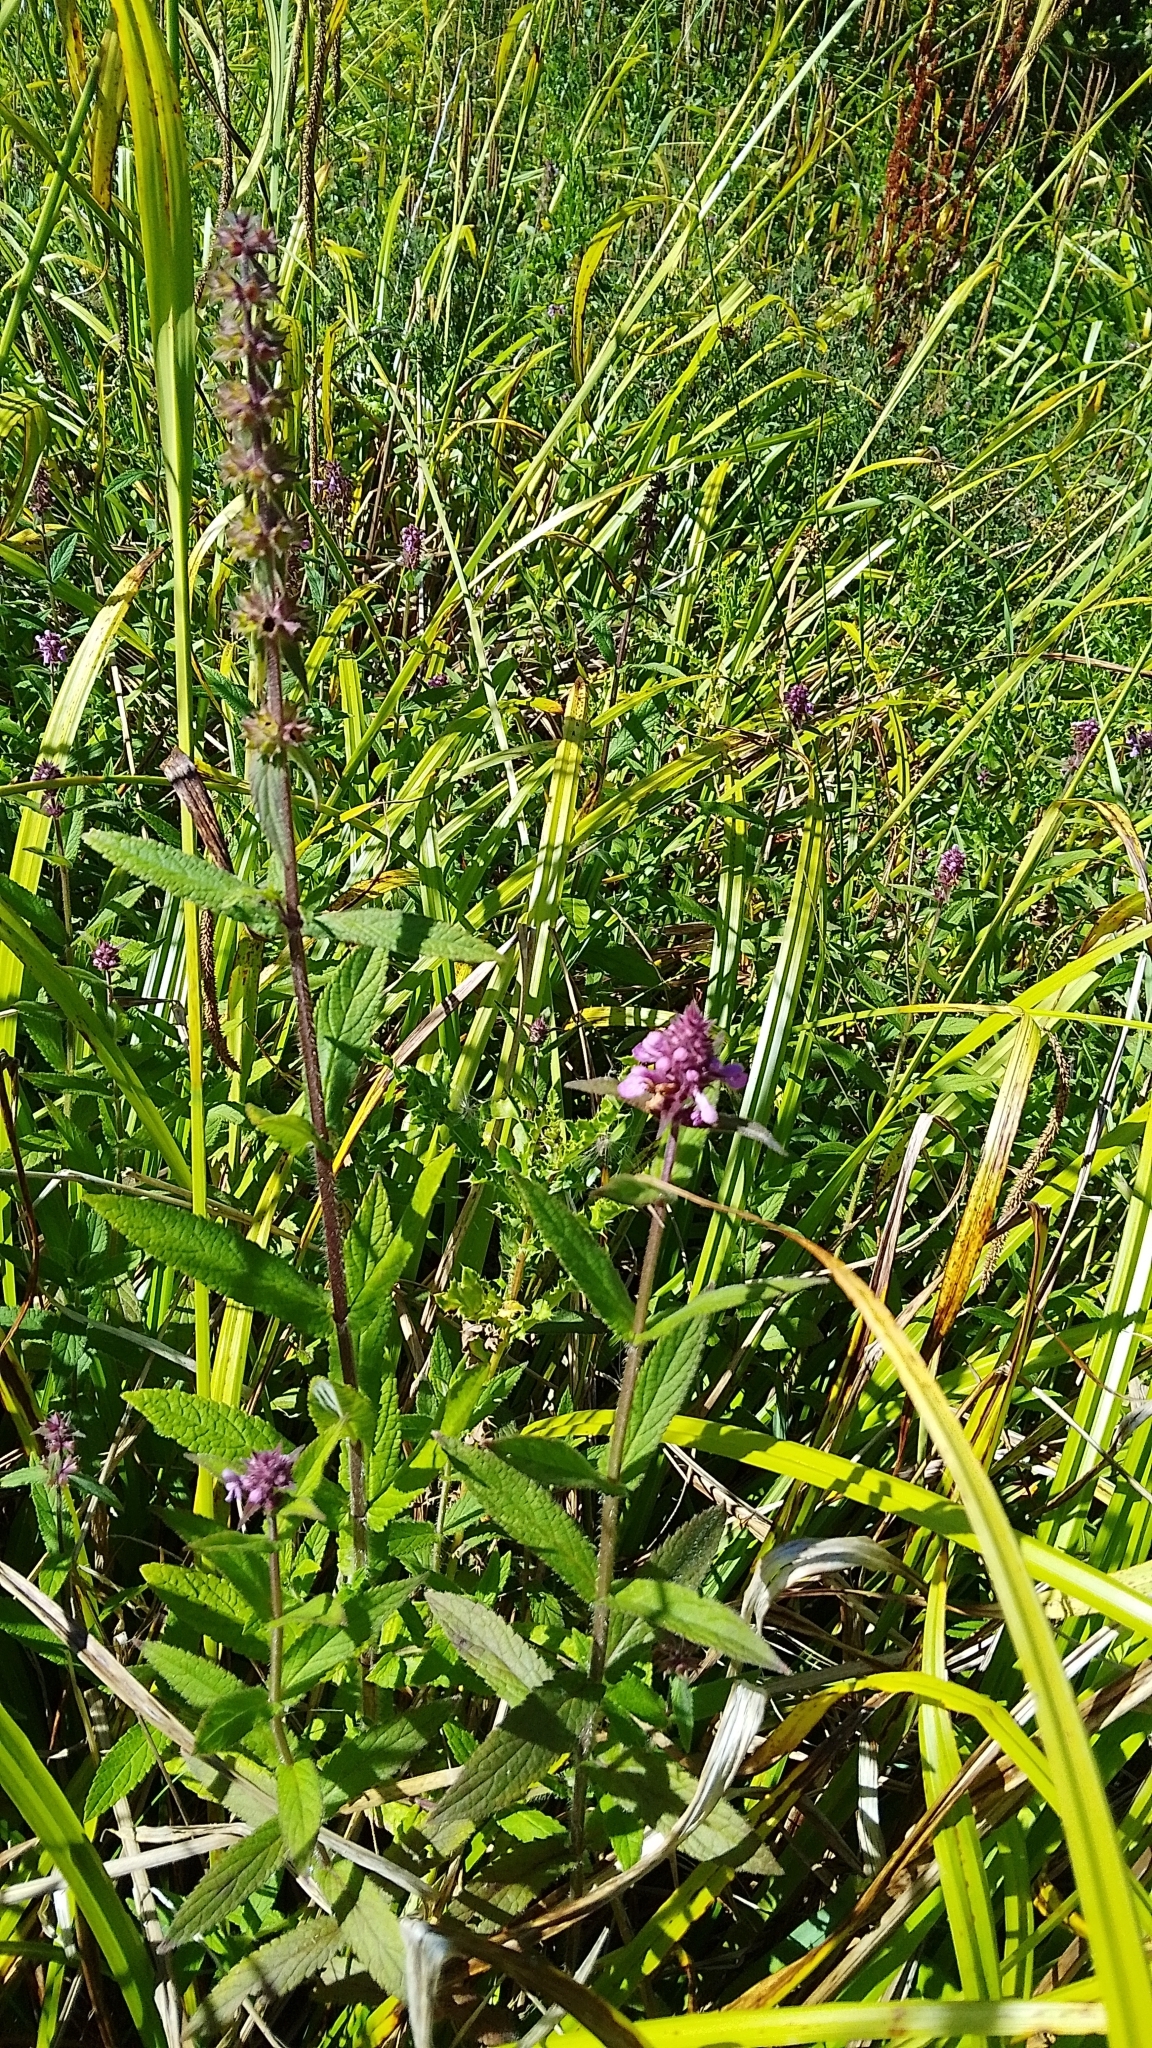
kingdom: Plantae
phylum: Tracheophyta
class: Magnoliopsida
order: Lamiales
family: Lamiaceae
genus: Stachys
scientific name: Stachys palustris
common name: Marsh woundwort
